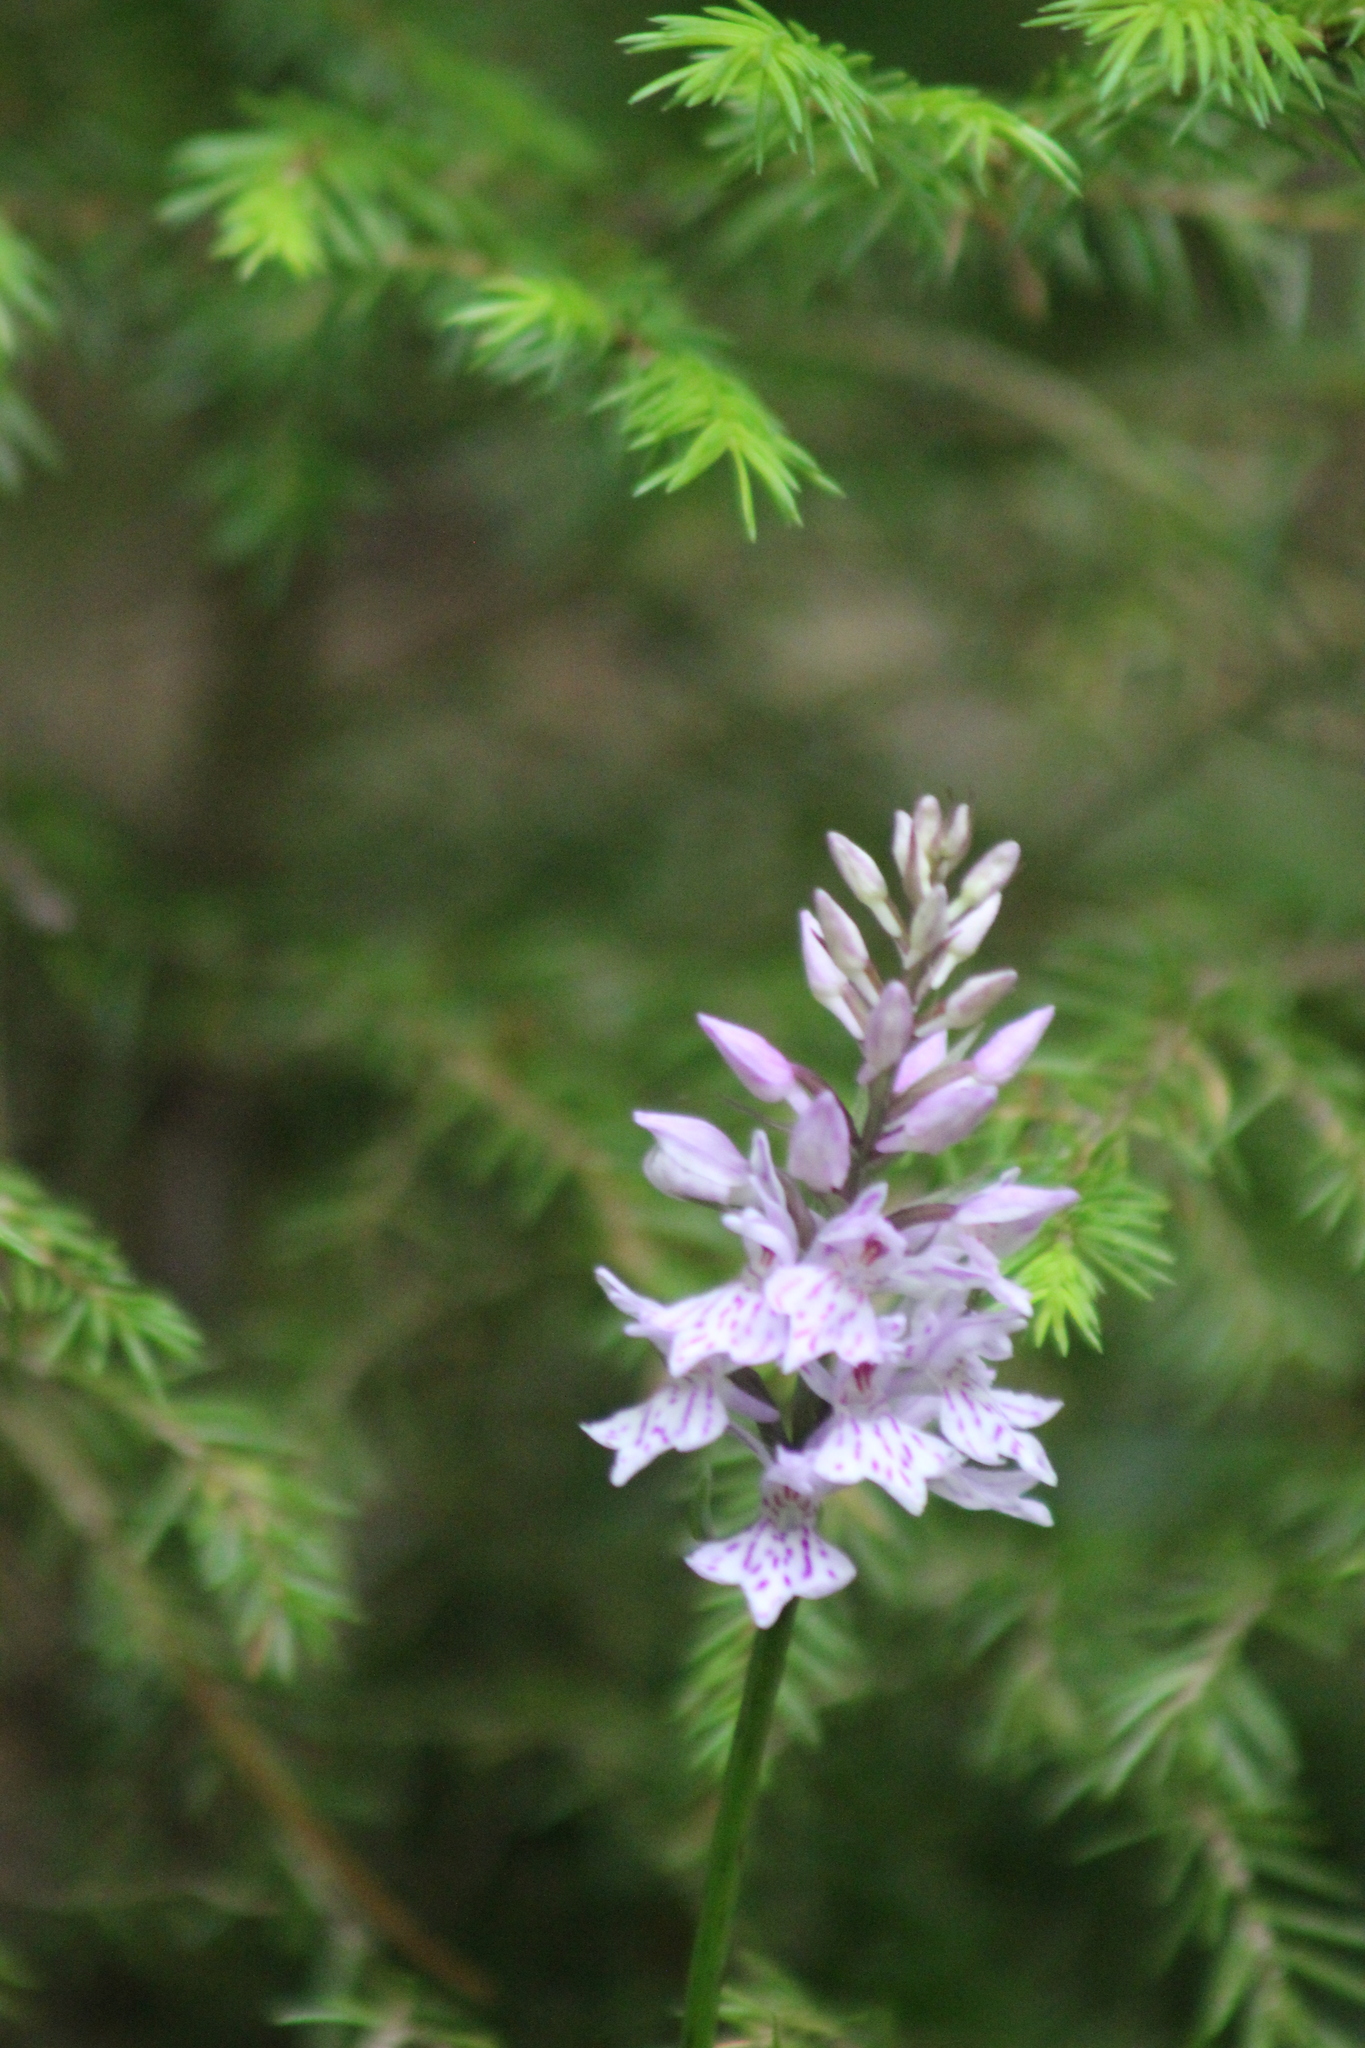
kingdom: Plantae
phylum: Tracheophyta
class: Liliopsida
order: Asparagales
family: Orchidaceae
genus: Dactylorhiza
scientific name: Dactylorhiza maculata
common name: Heath spotted-orchid
